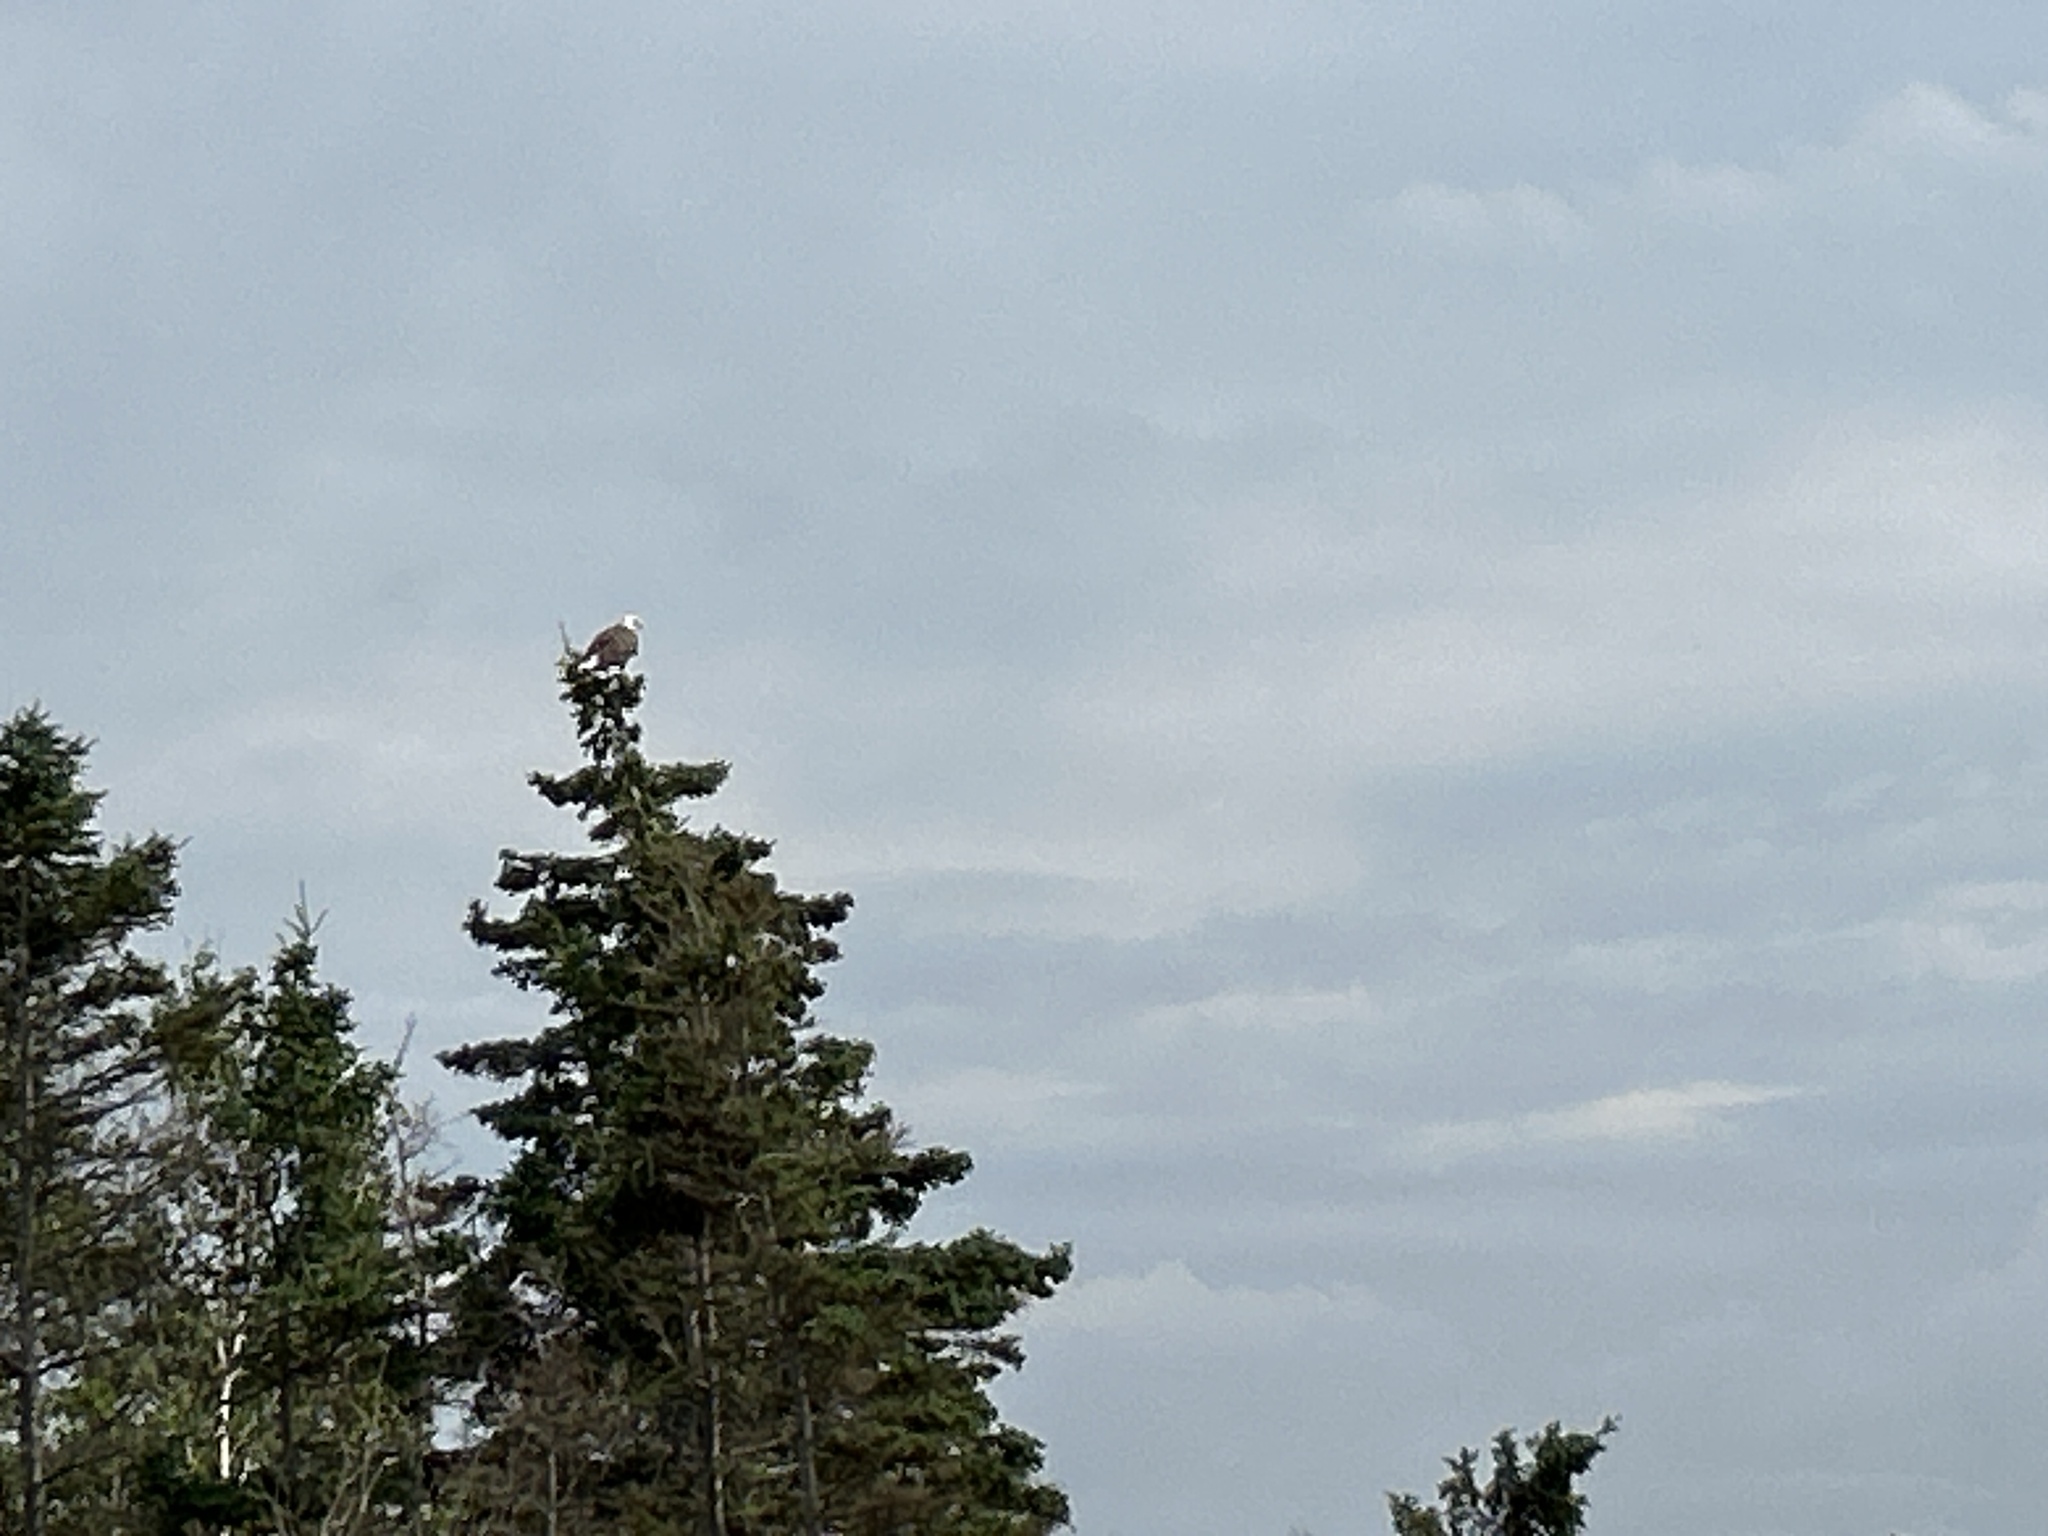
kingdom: Animalia
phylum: Chordata
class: Aves
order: Accipitriformes
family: Accipitridae
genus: Haliaeetus
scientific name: Haliaeetus leucocephalus
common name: Bald eagle
